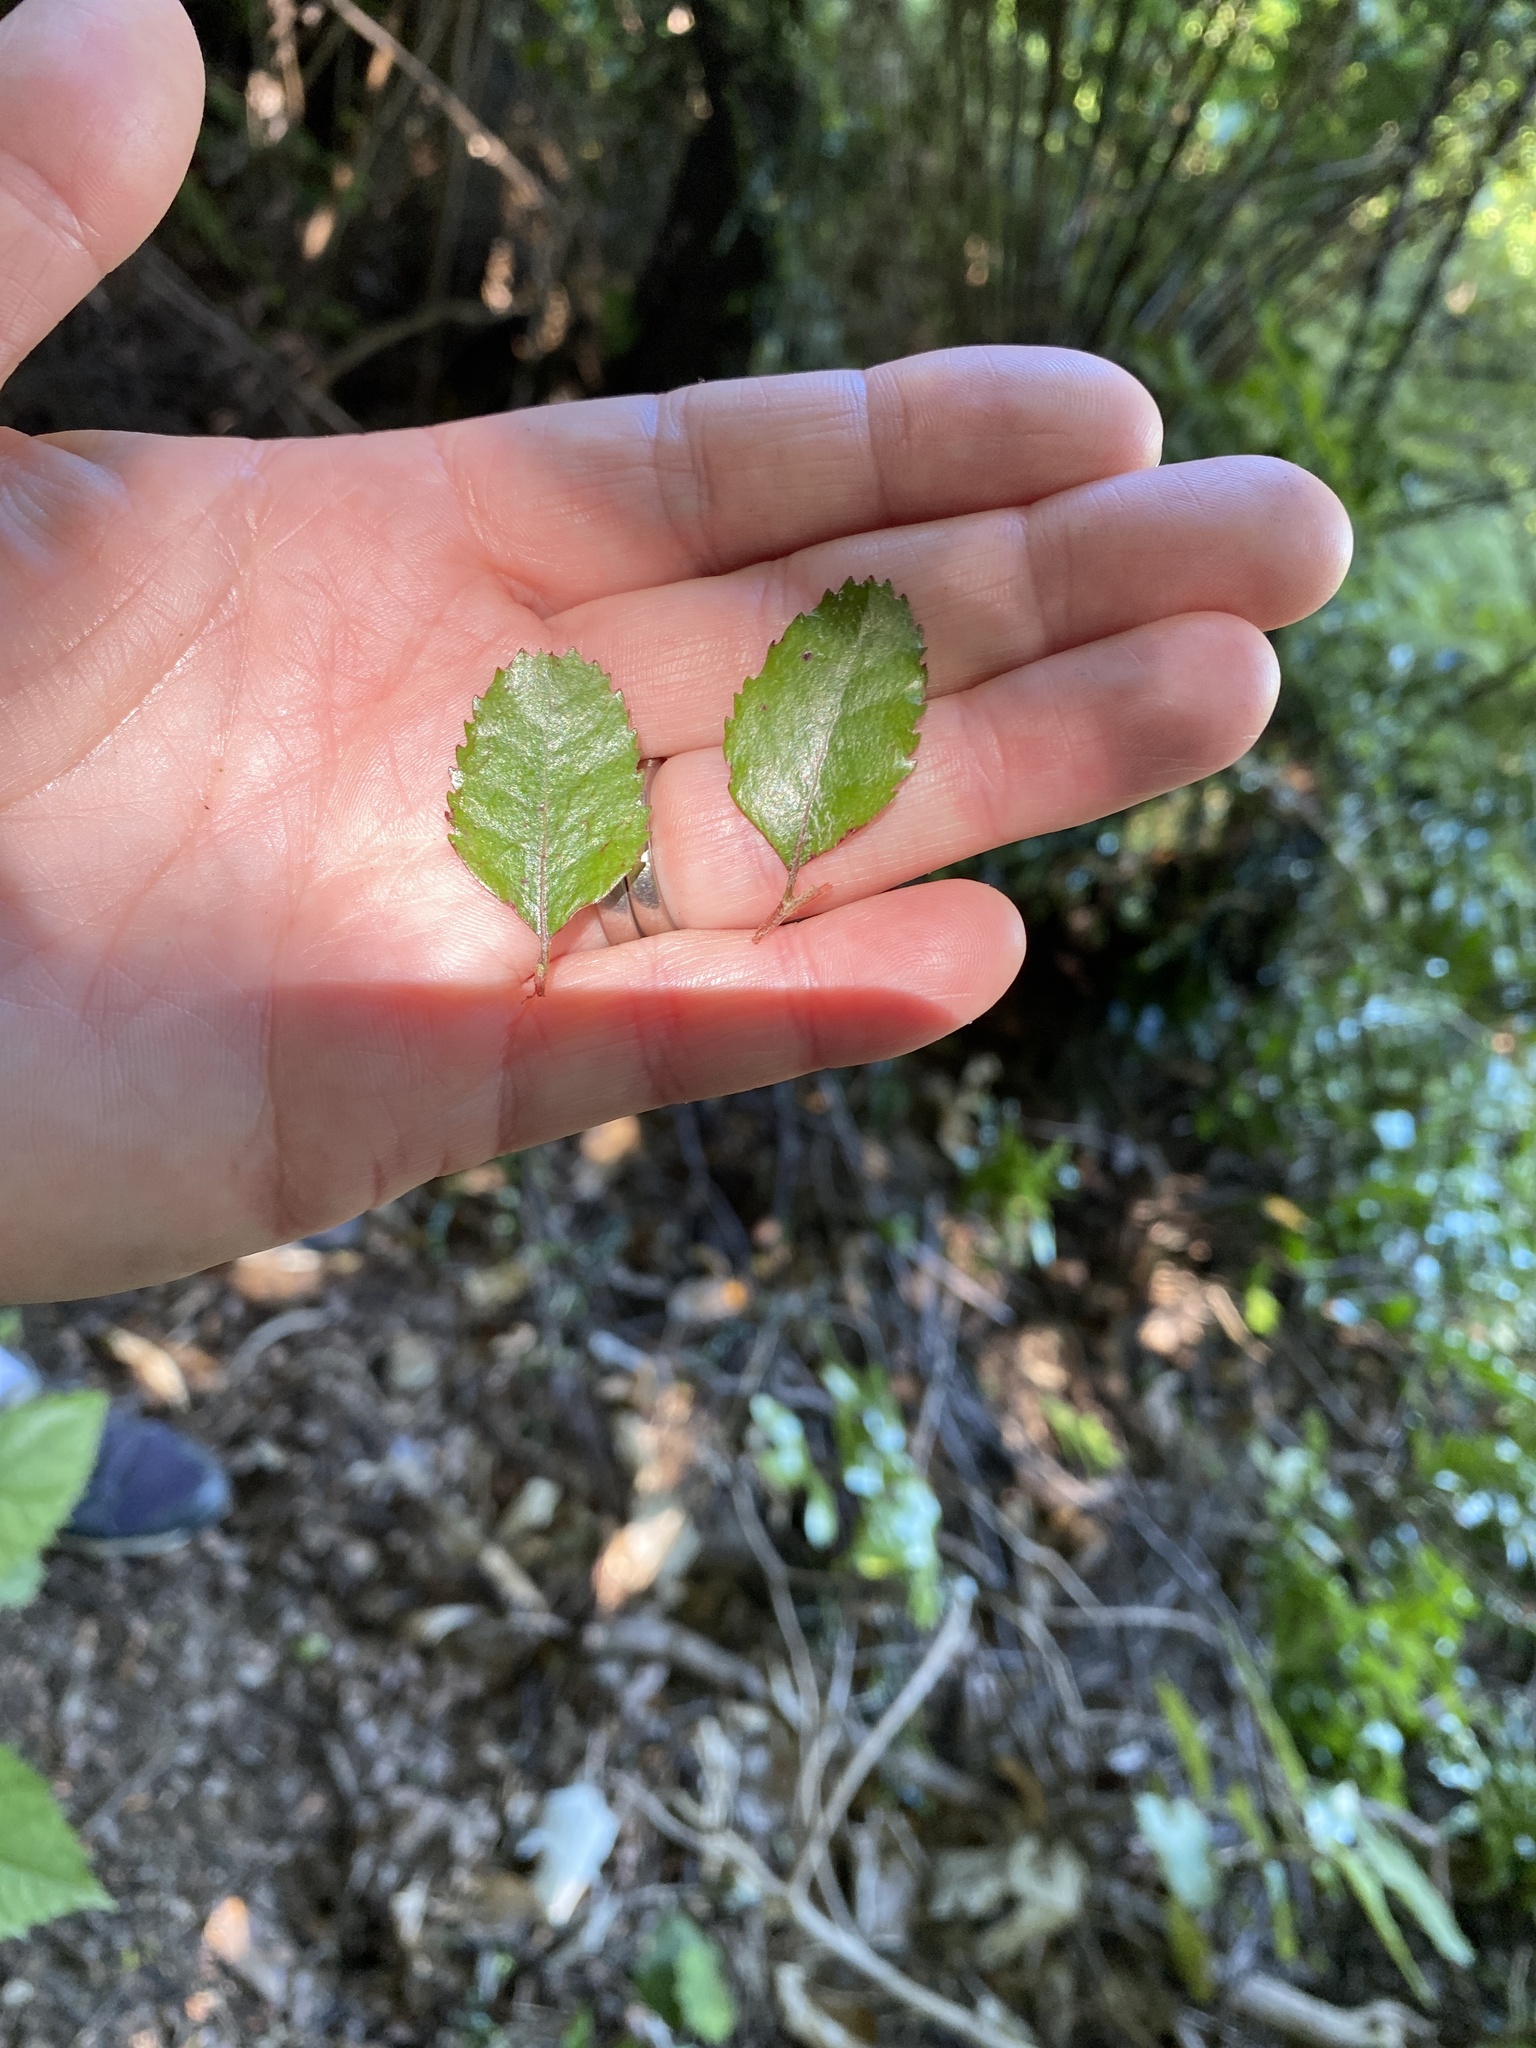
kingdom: Plantae
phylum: Tracheophyta
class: Magnoliopsida
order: Fagales
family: Nothofagaceae
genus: Nothofagus
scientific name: Nothofagus truncata
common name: Hard beech
